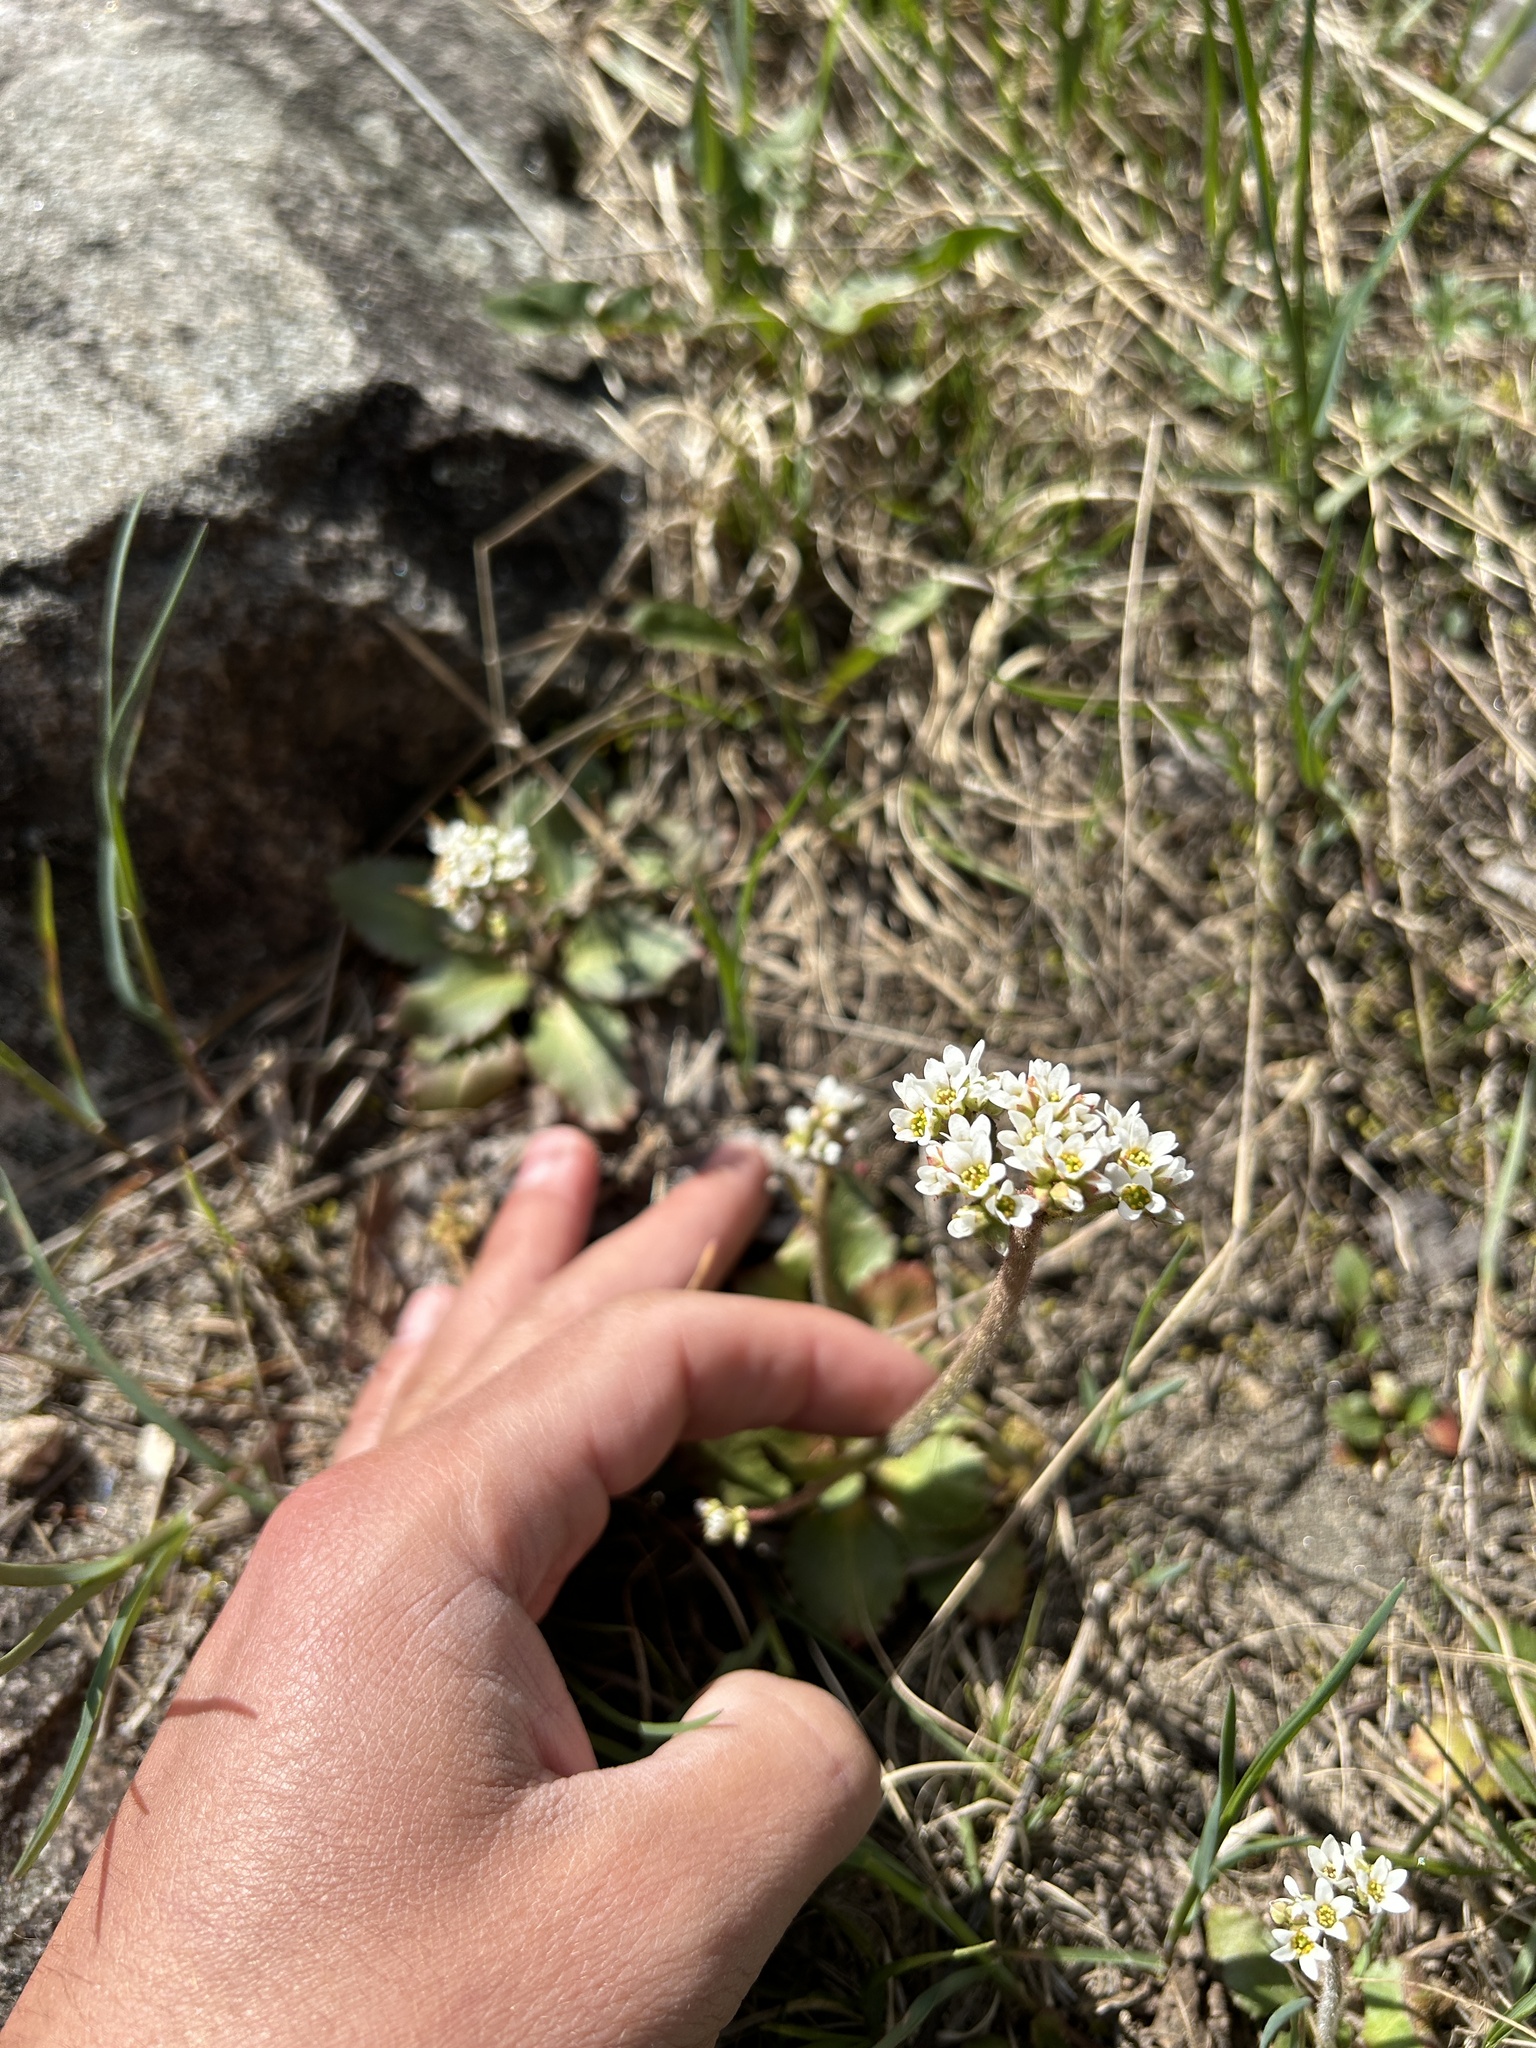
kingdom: Plantae
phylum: Tracheophyta
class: Magnoliopsida
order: Saxifragales
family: Saxifragaceae
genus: Micranthes
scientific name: Micranthes virginiensis
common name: Early saxifrage
